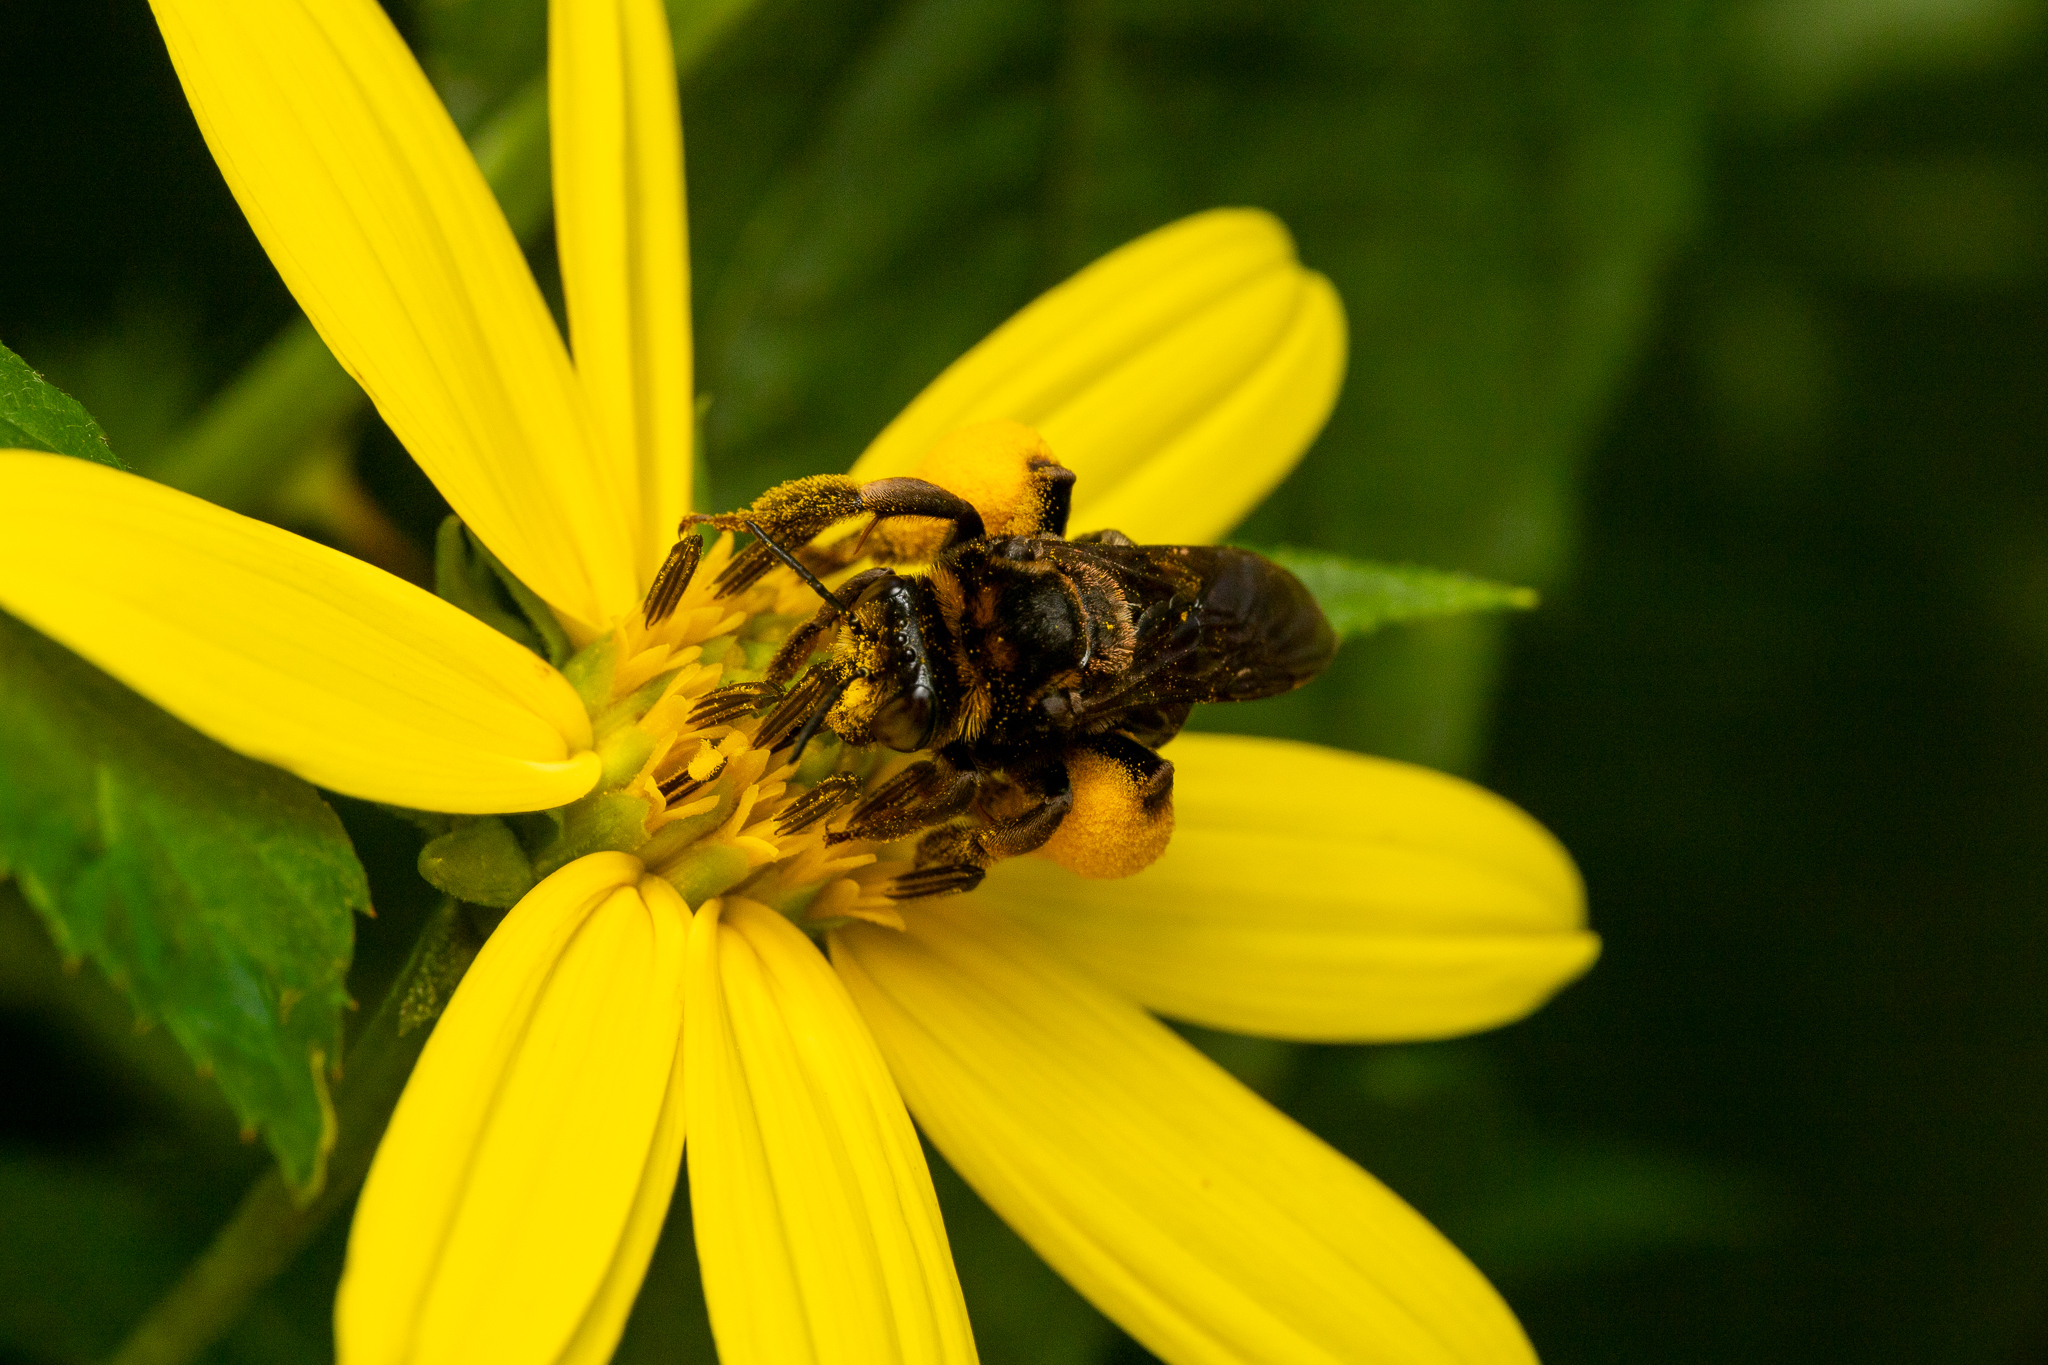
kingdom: Animalia
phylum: Arthropoda
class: Insecta
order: Hymenoptera
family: Apidae
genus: Svastra
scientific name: Svastra obliqua
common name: Oblique longhorn
